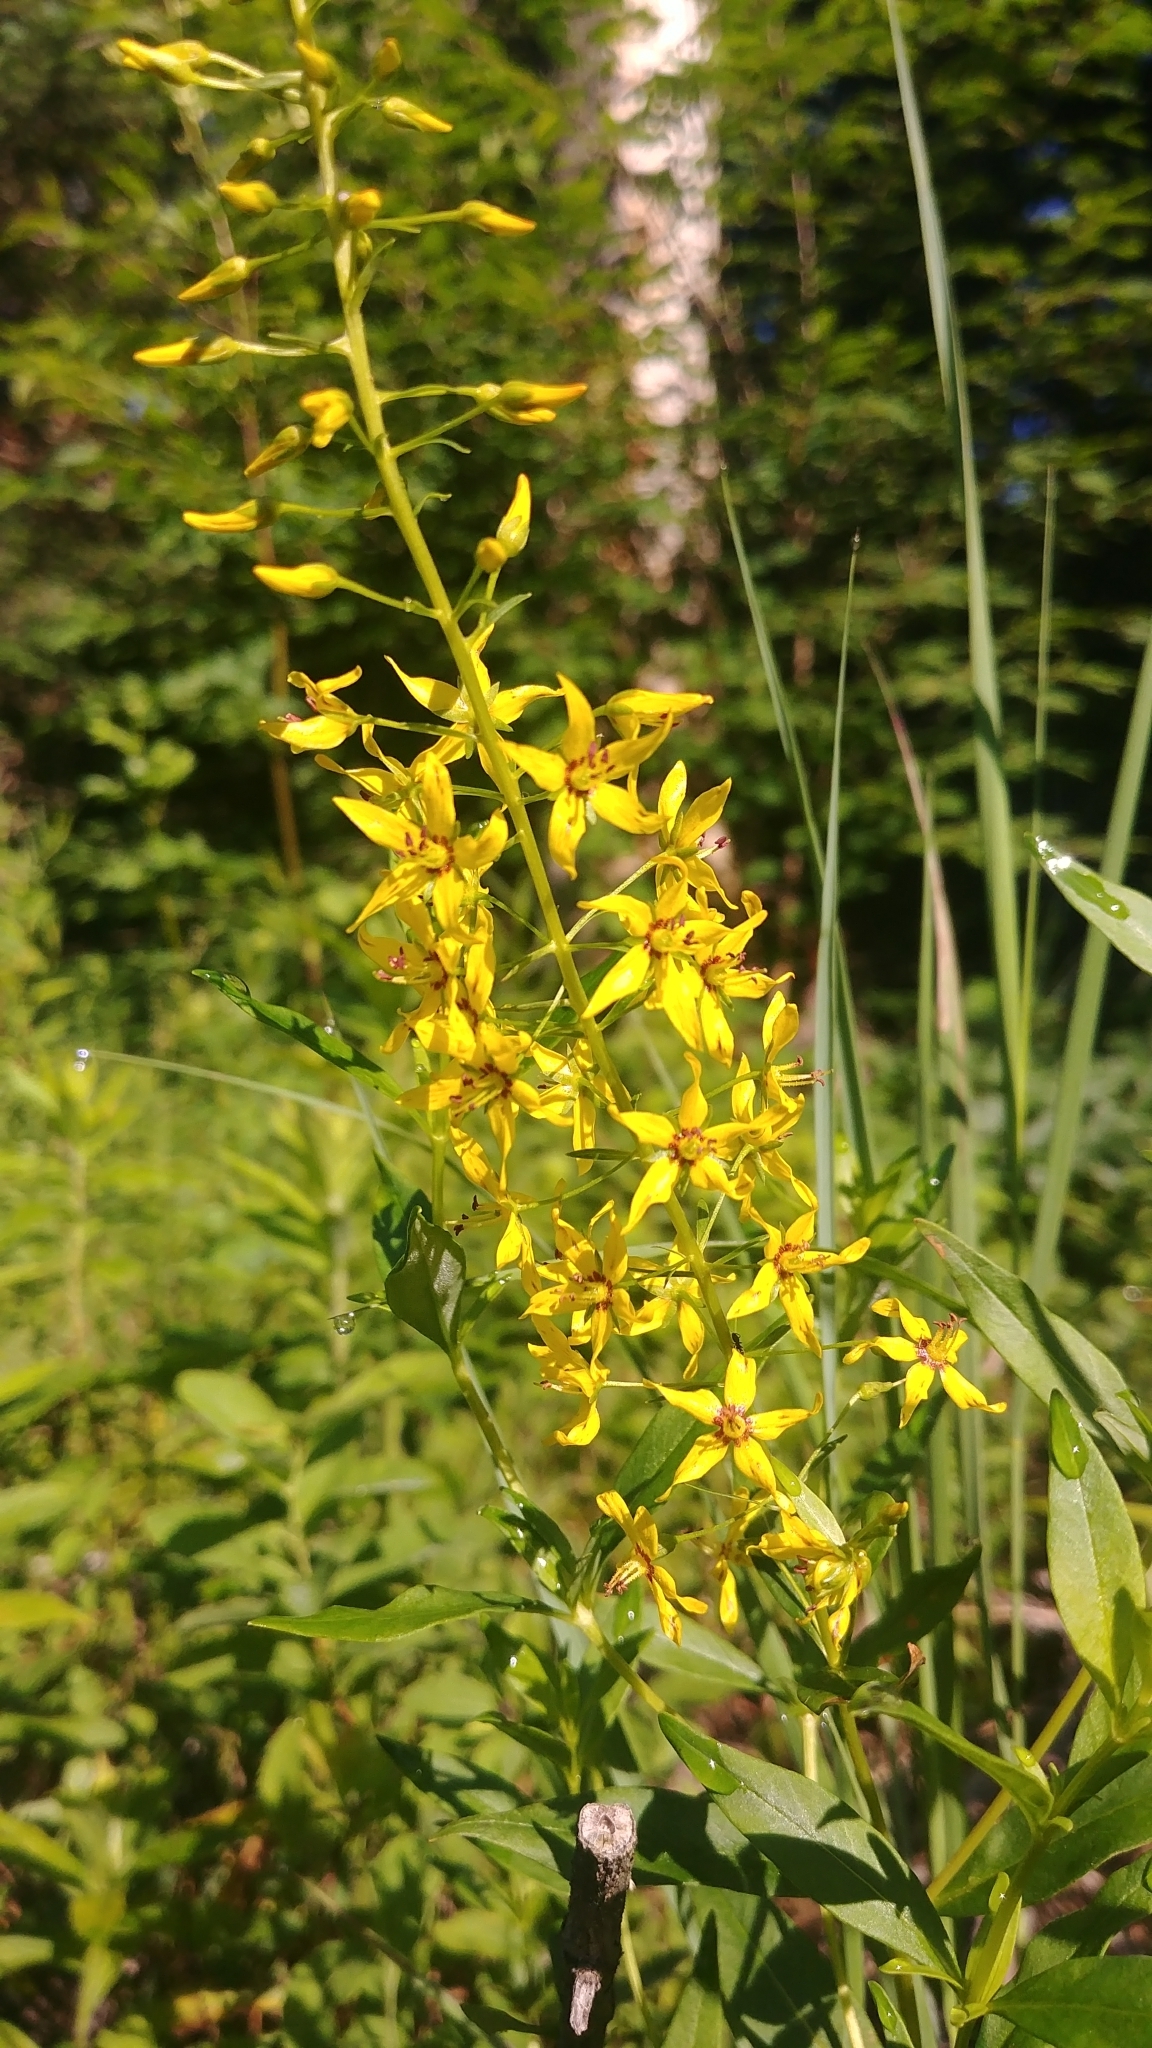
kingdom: Plantae
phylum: Tracheophyta
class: Magnoliopsida
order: Ericales
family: Primulaceae
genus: Lysimachia
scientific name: Lysimachia terrestris
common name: Lake loosestrife
